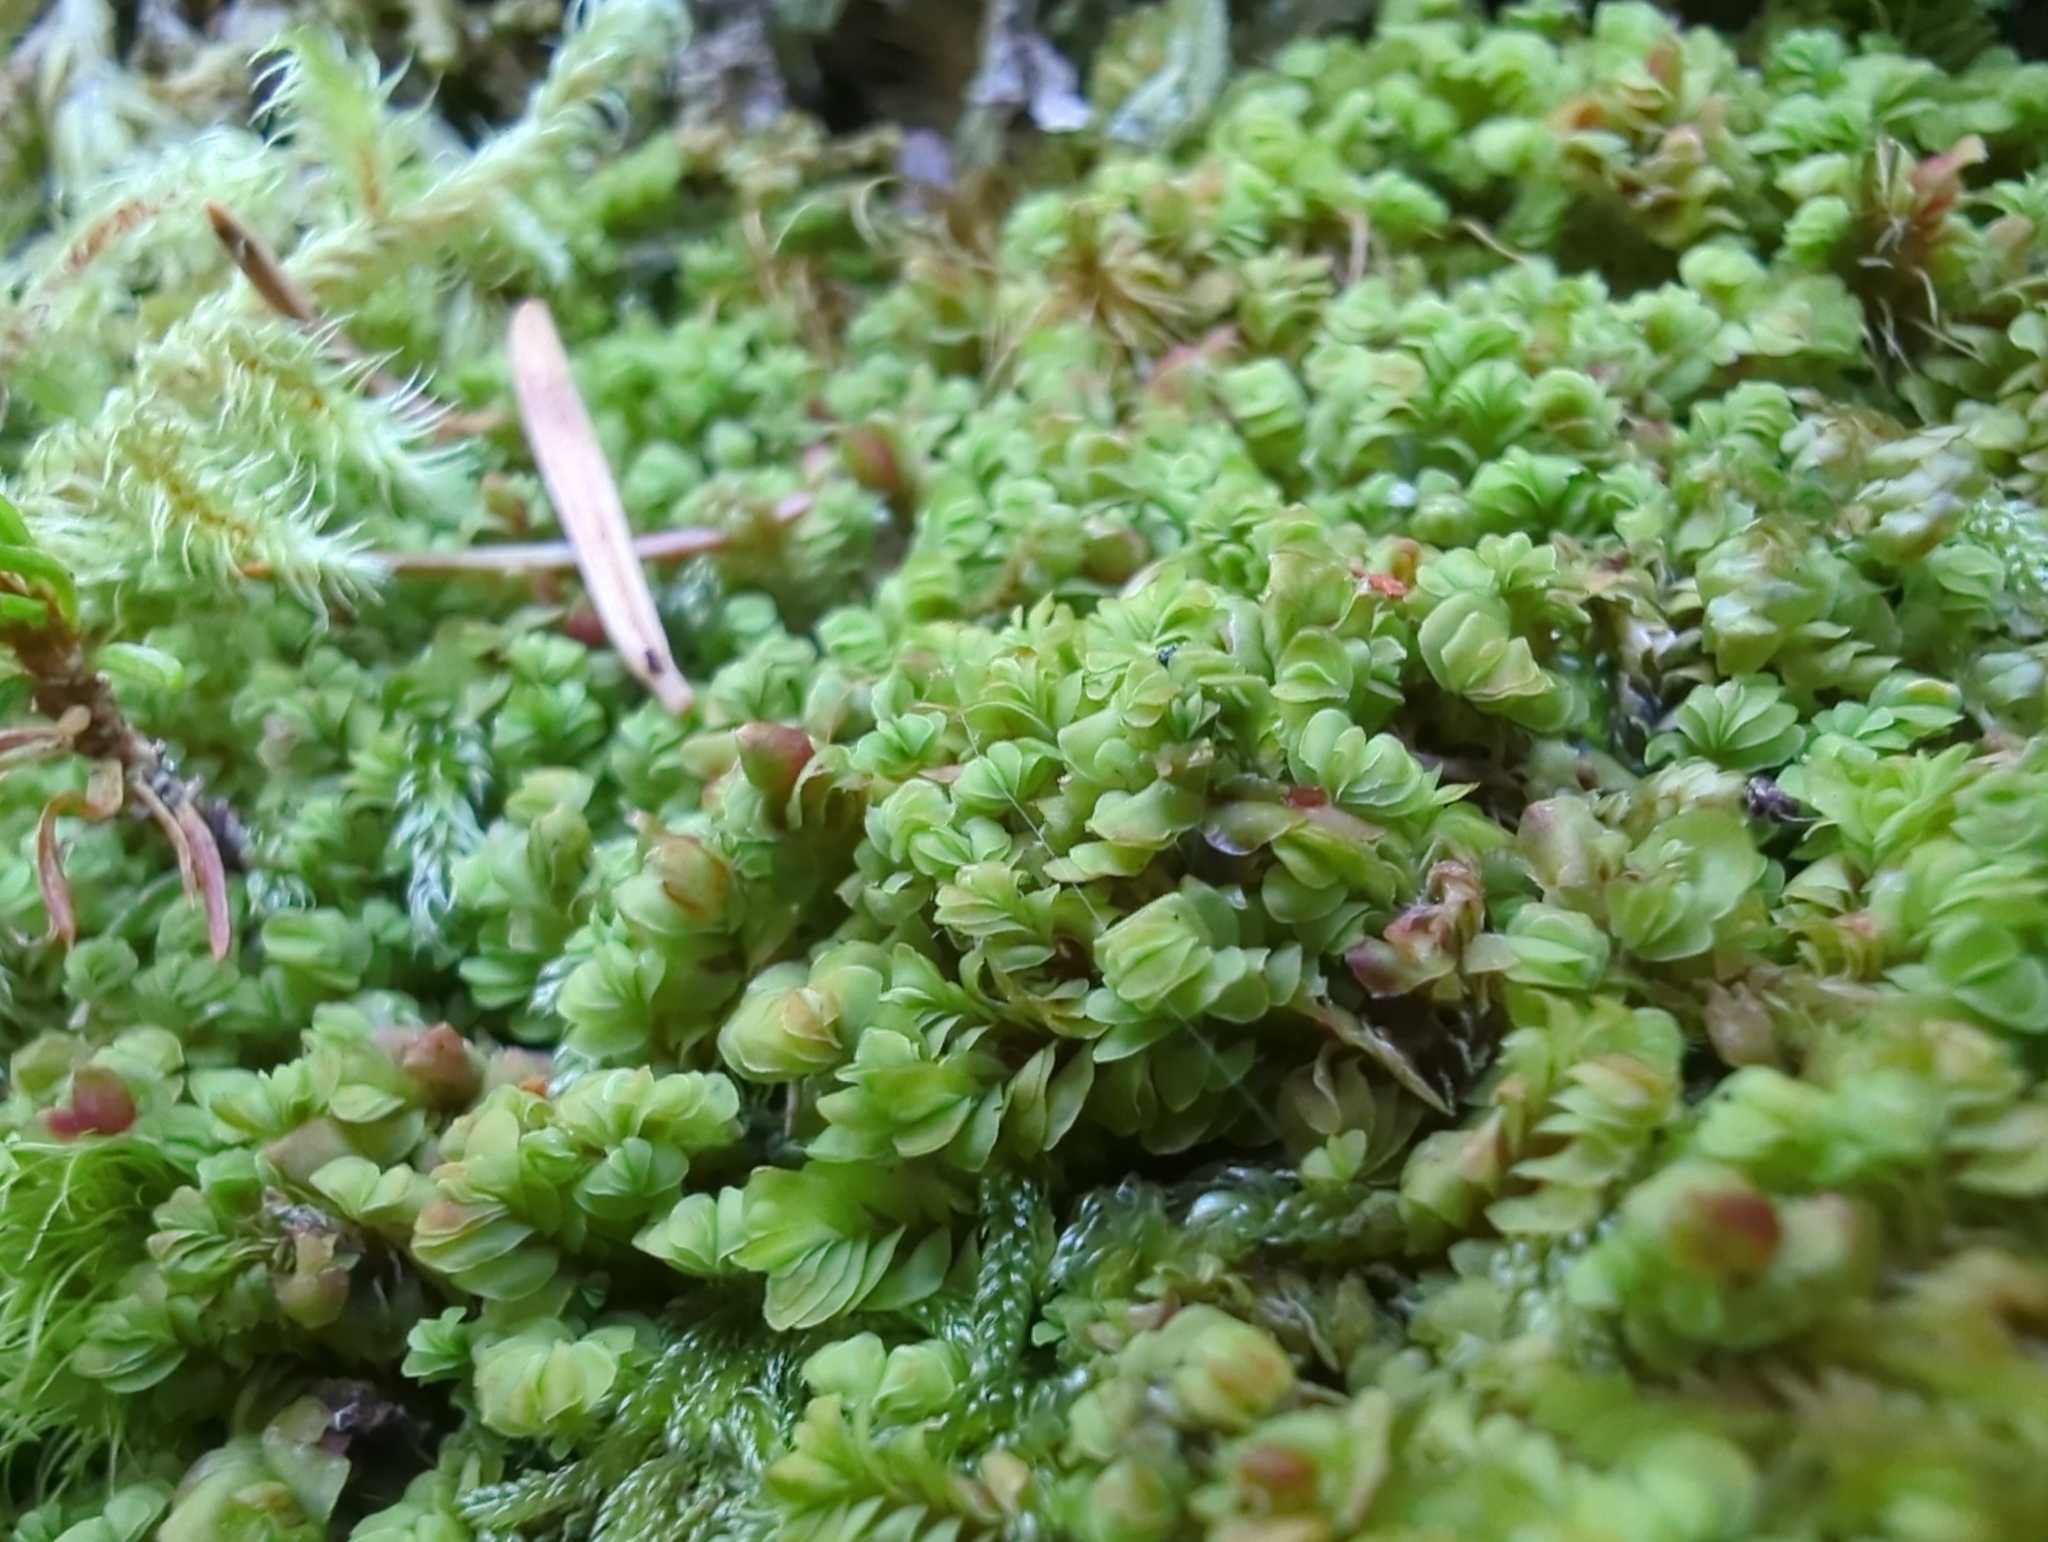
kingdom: Plantae
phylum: Marchantiophyta
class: Jungermanniopsida
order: Jungermanniales
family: Myliaceae
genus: Mylia
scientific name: Mylia taylorii
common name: Taylor s flapwort
